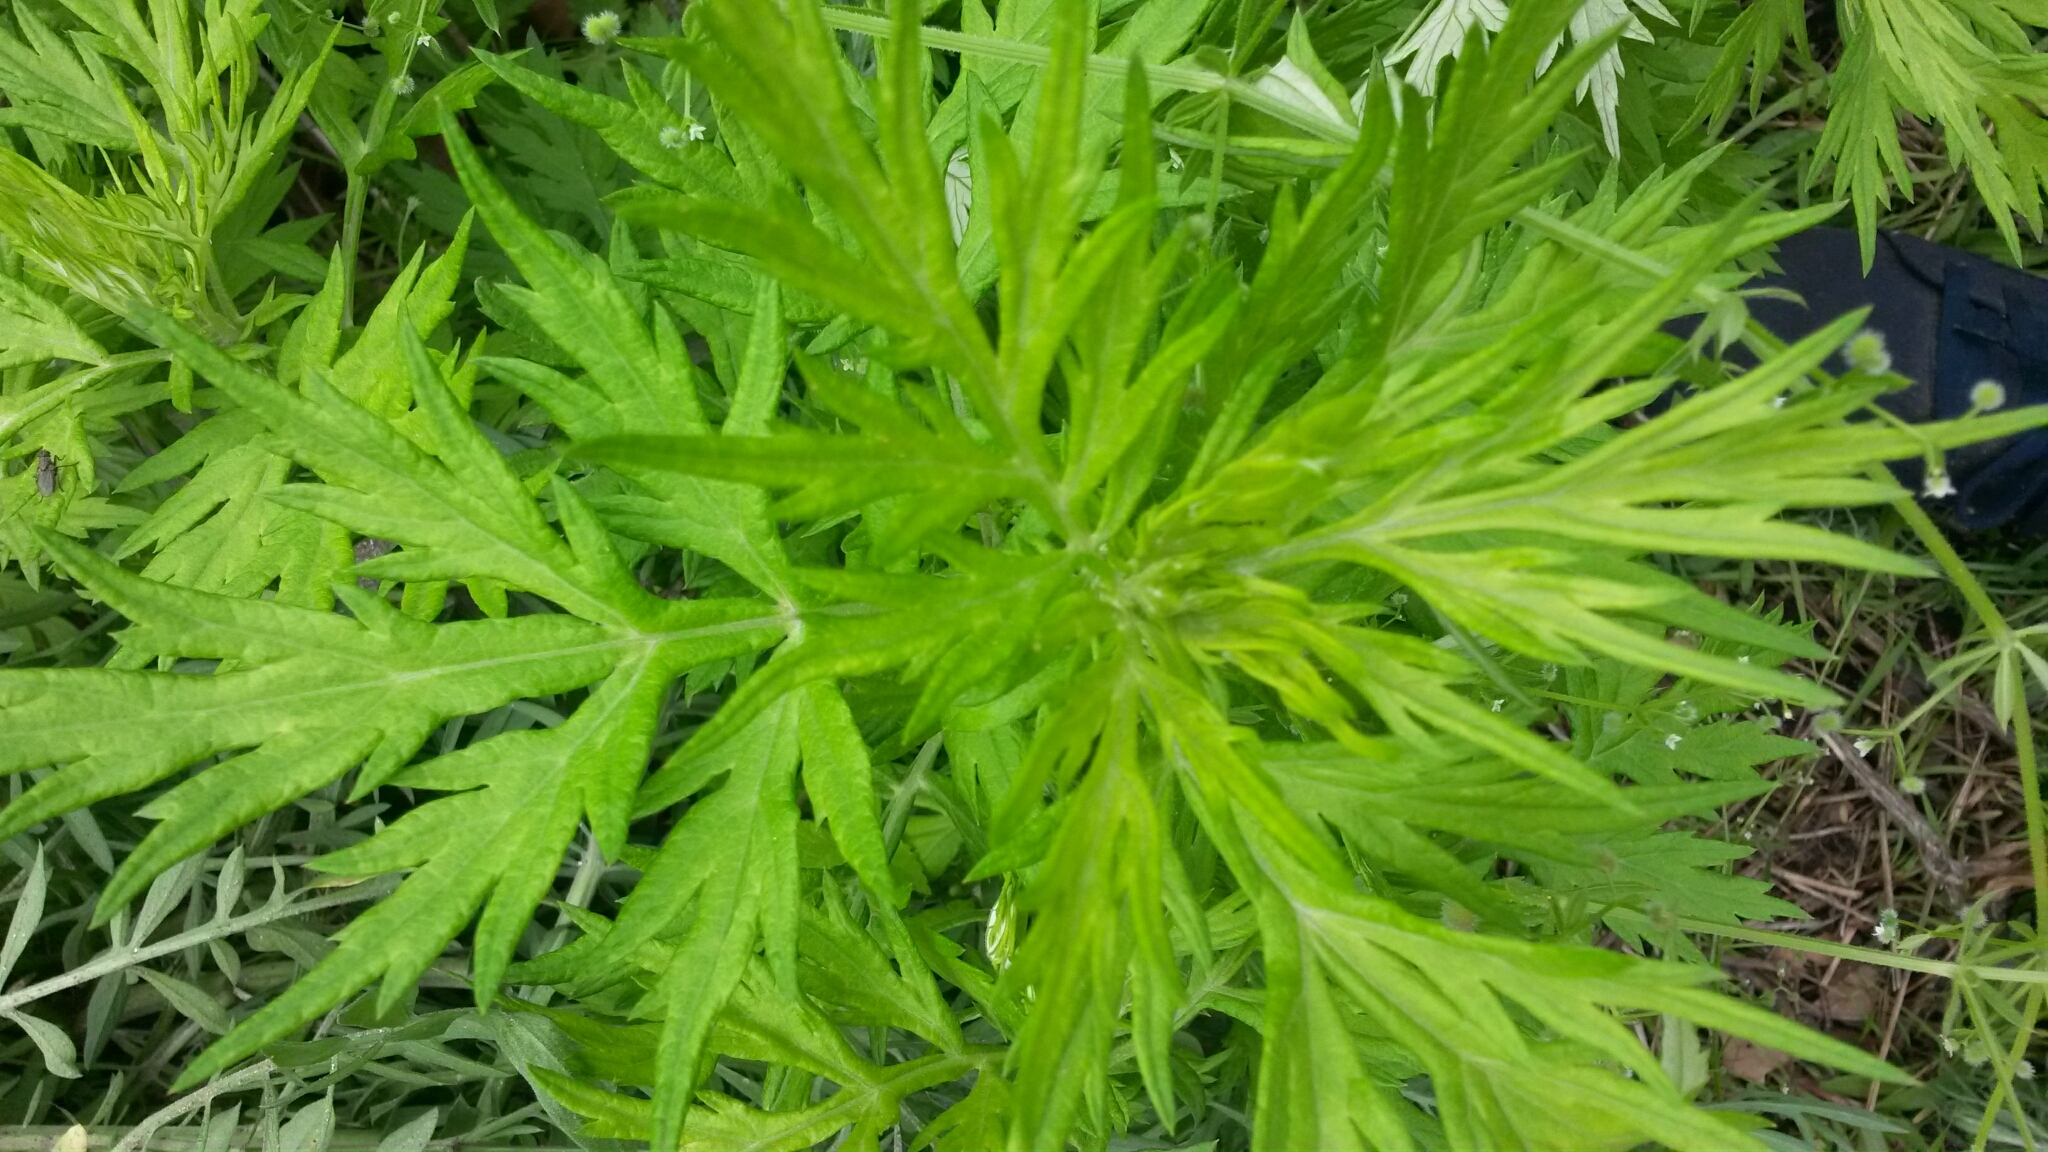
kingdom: Plantae
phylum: Tracheophyta
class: Magnoliopsida
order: Asterales
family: Asteraceae
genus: Artemisia
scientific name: Artemisia vulgaris
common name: Mugwort
